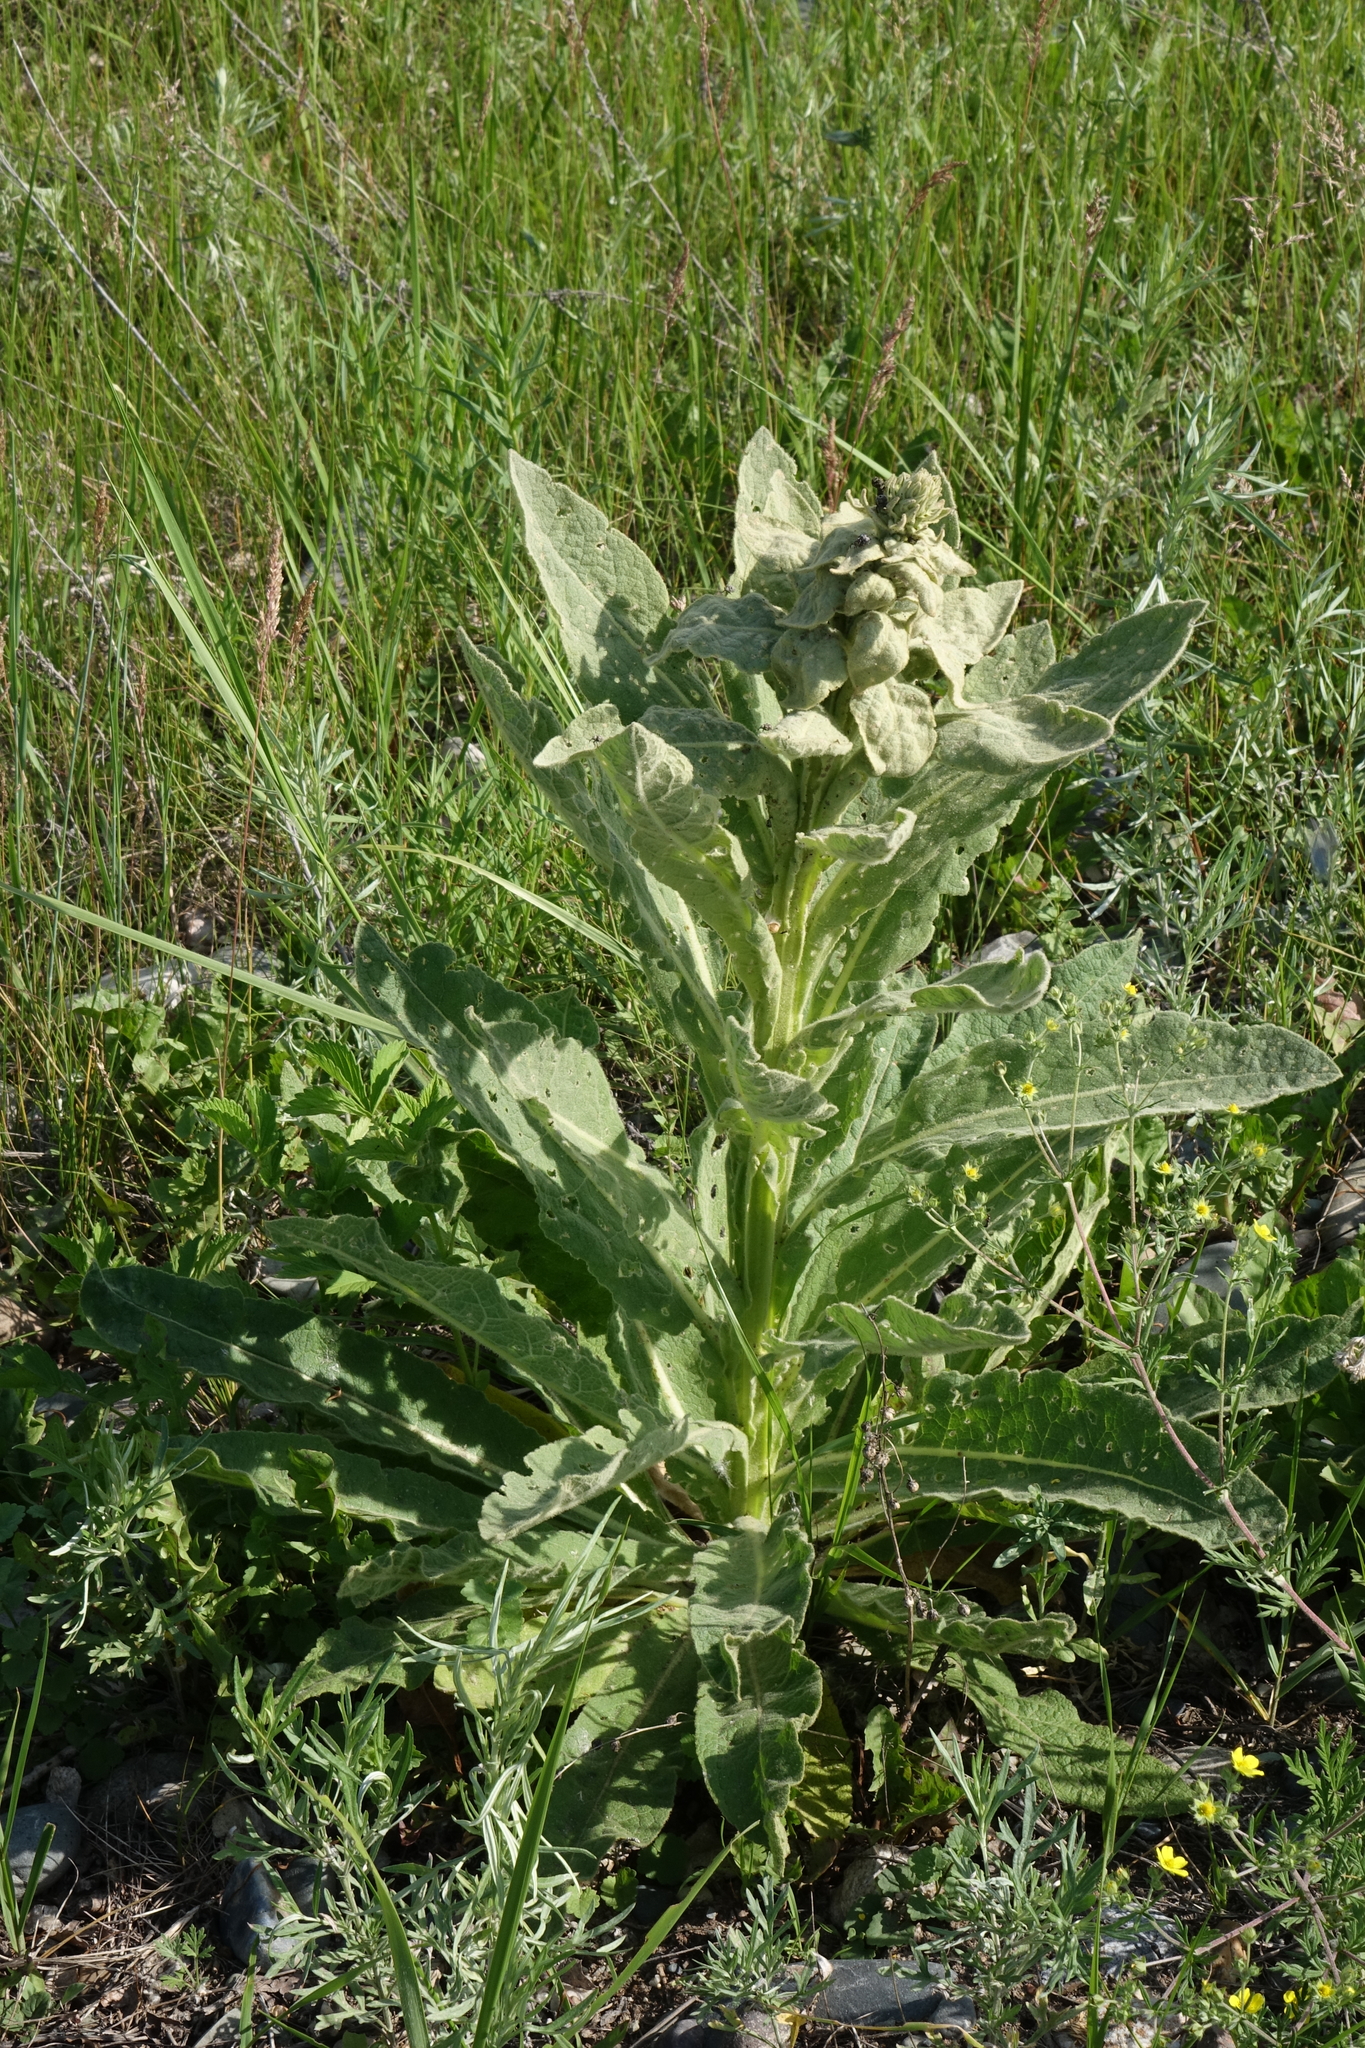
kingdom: Plantae
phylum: Tracheophyta
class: Magnoliopsida
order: Lamiales
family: Scrophulariaceae
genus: Verbascum
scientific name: Verbascum thapsus
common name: Common mullein
